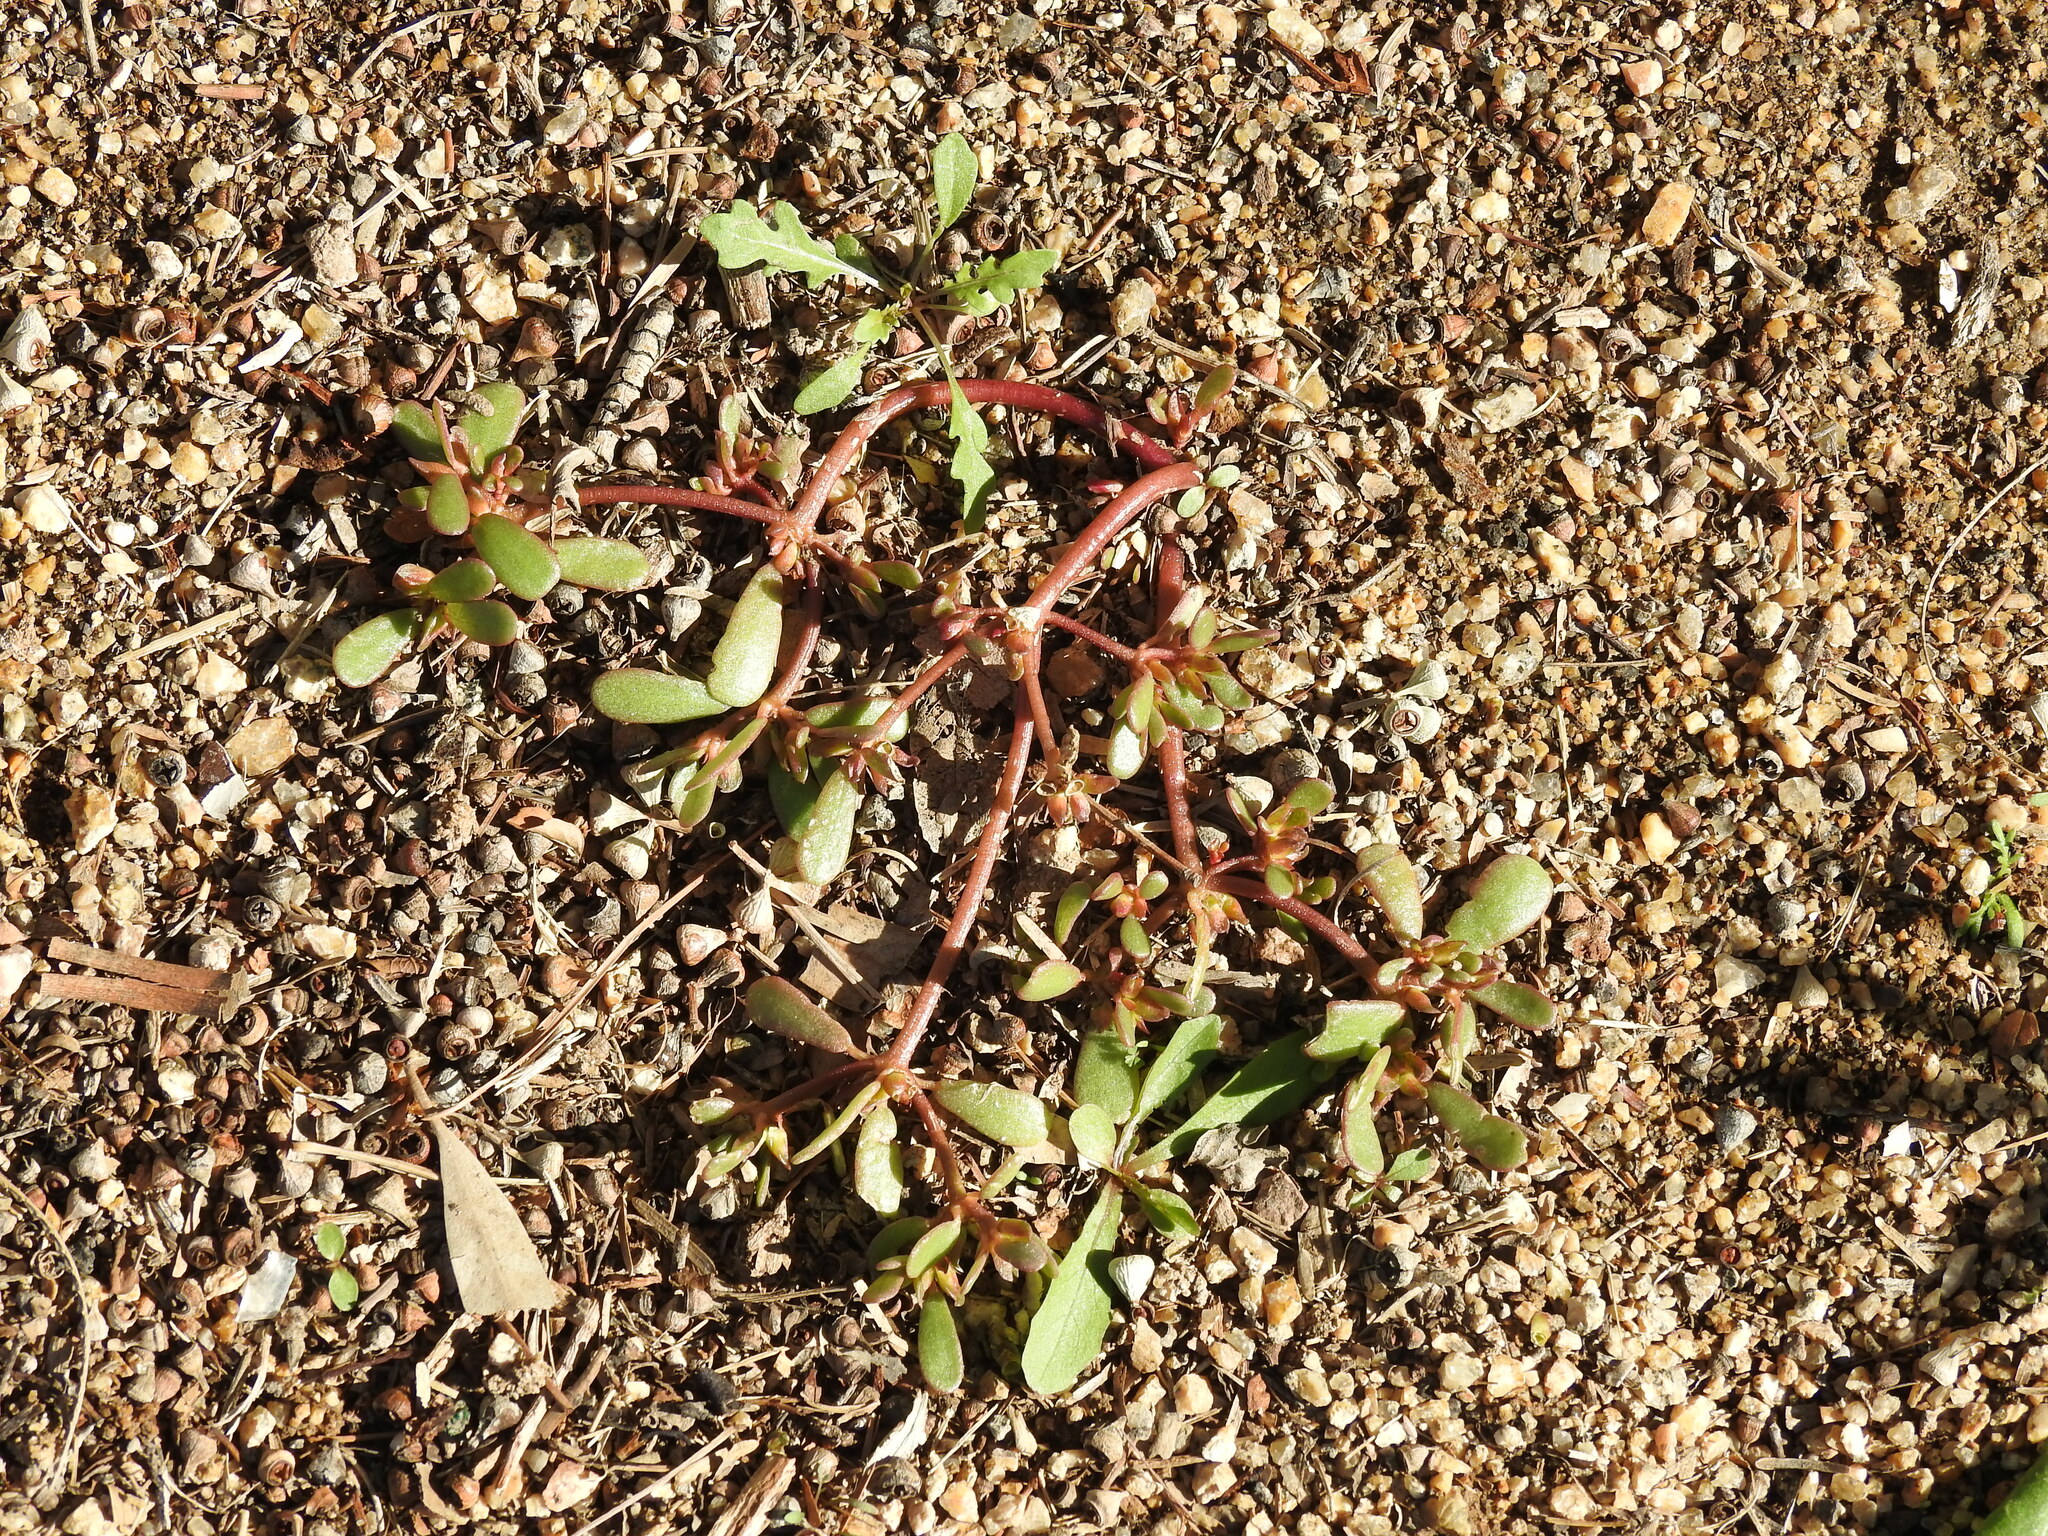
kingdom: Plantae
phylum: Tracheophyta
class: Magnoliopsida
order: Caryophyllales
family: Portulacaceae
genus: Portulaca
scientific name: Portulaca oleracea
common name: Common purslane
